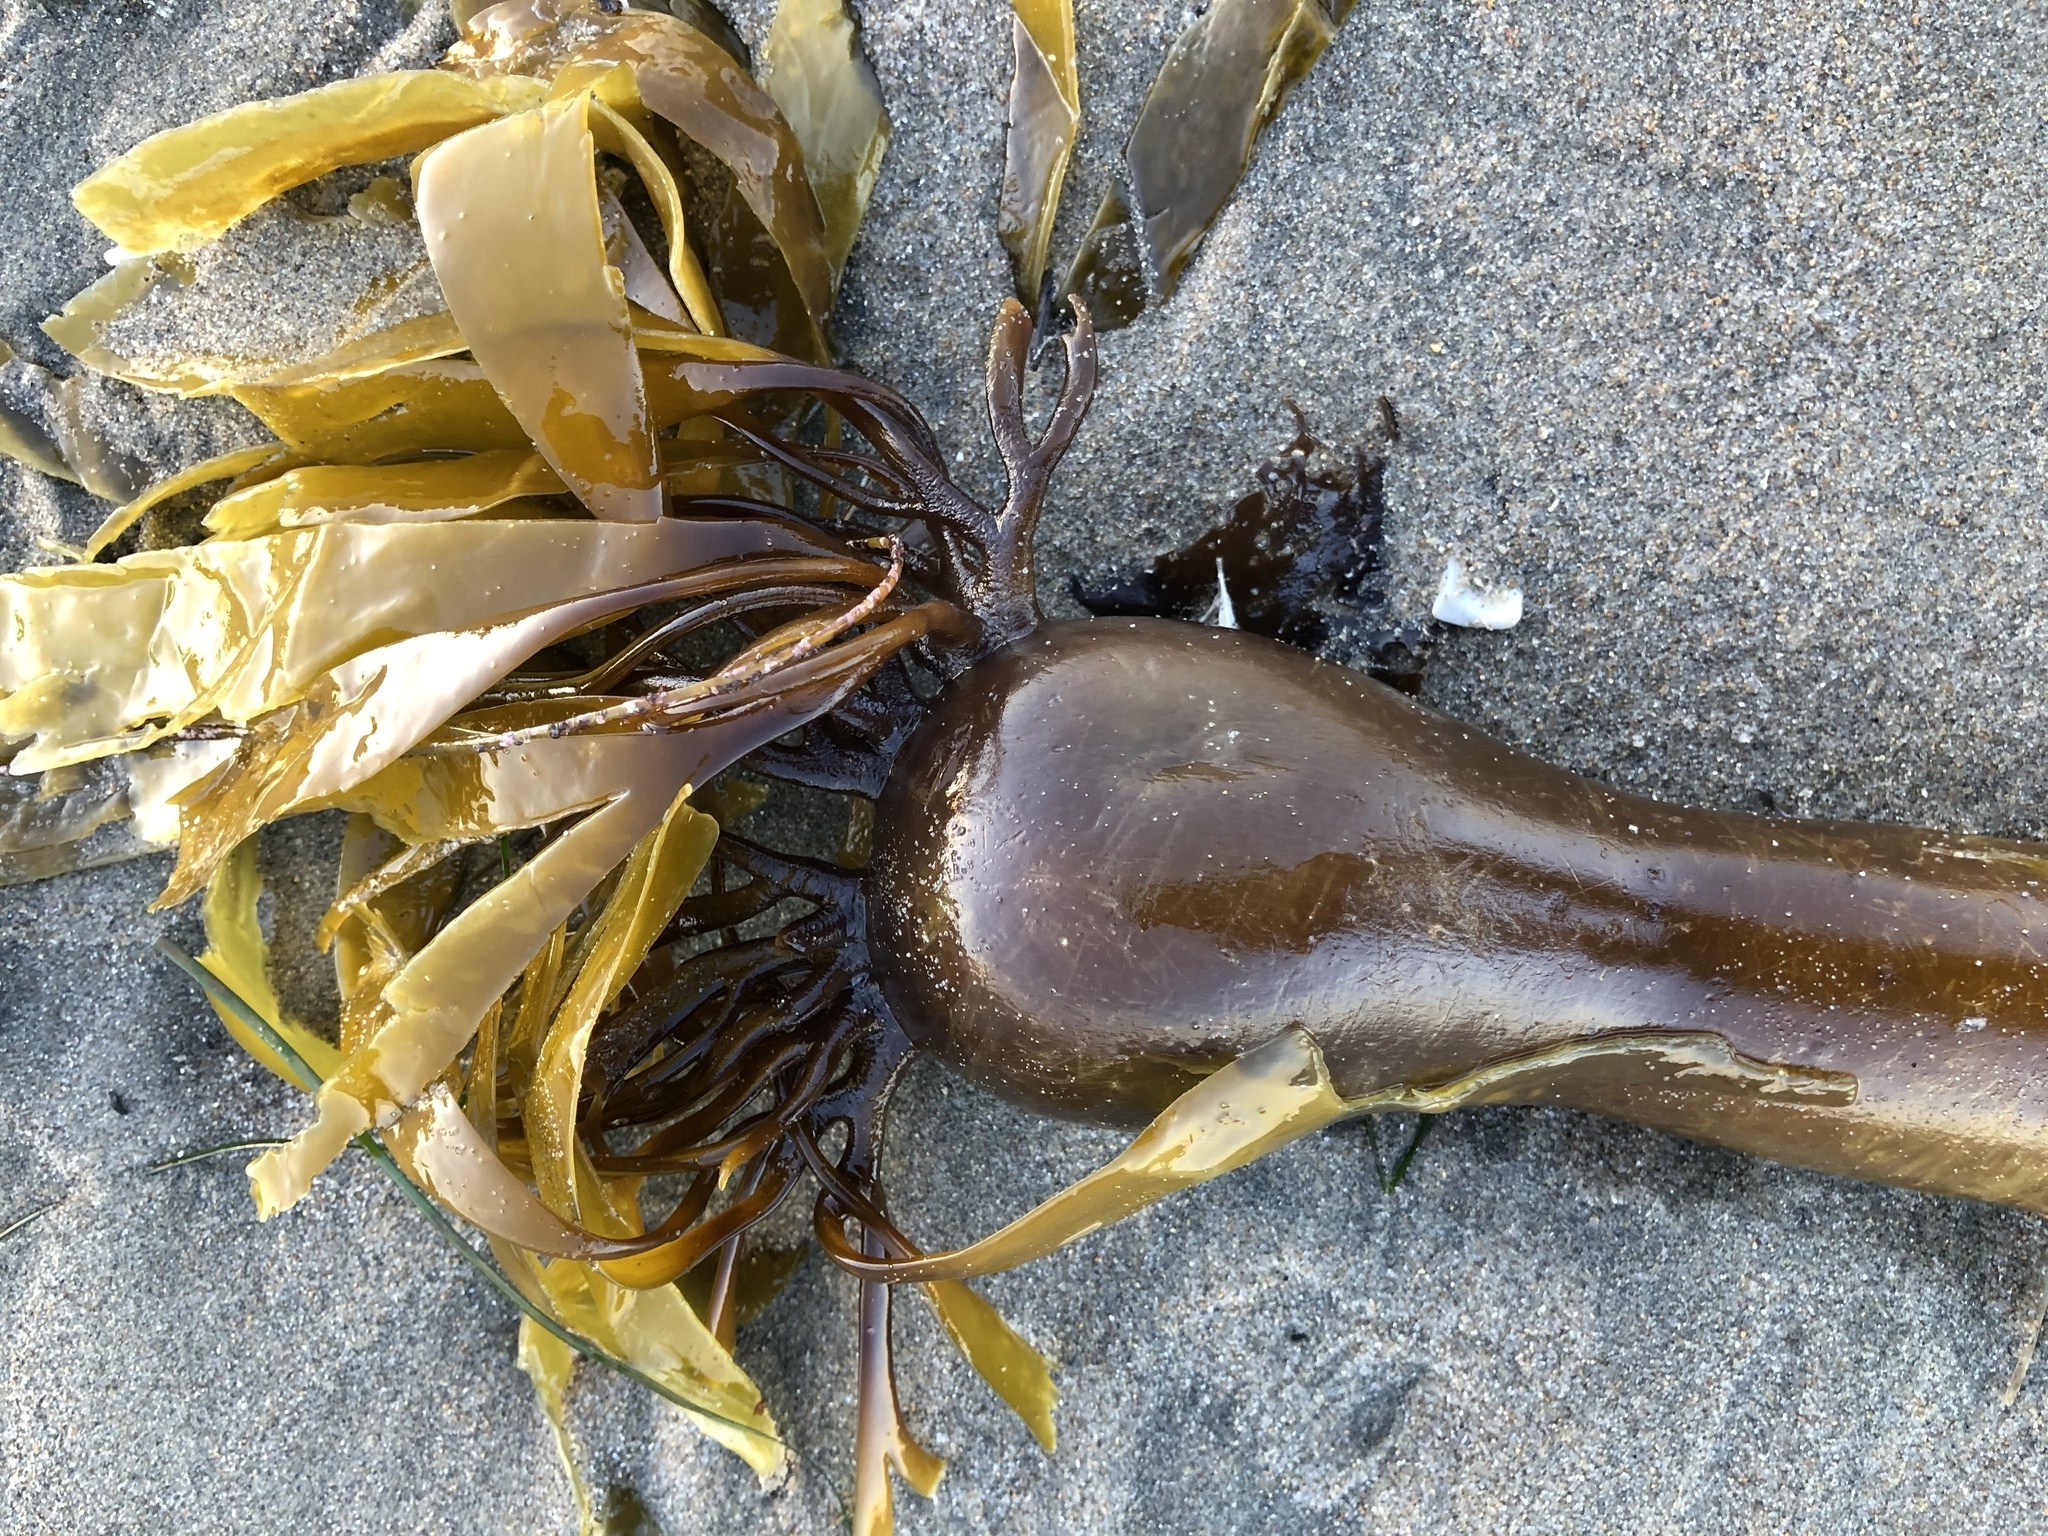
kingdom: Chromista
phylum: Ochrophyta
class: Phaeophyceae
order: Laminariales
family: Laminariaceae
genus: Nereocystis
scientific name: Nereocystis luetkeana
